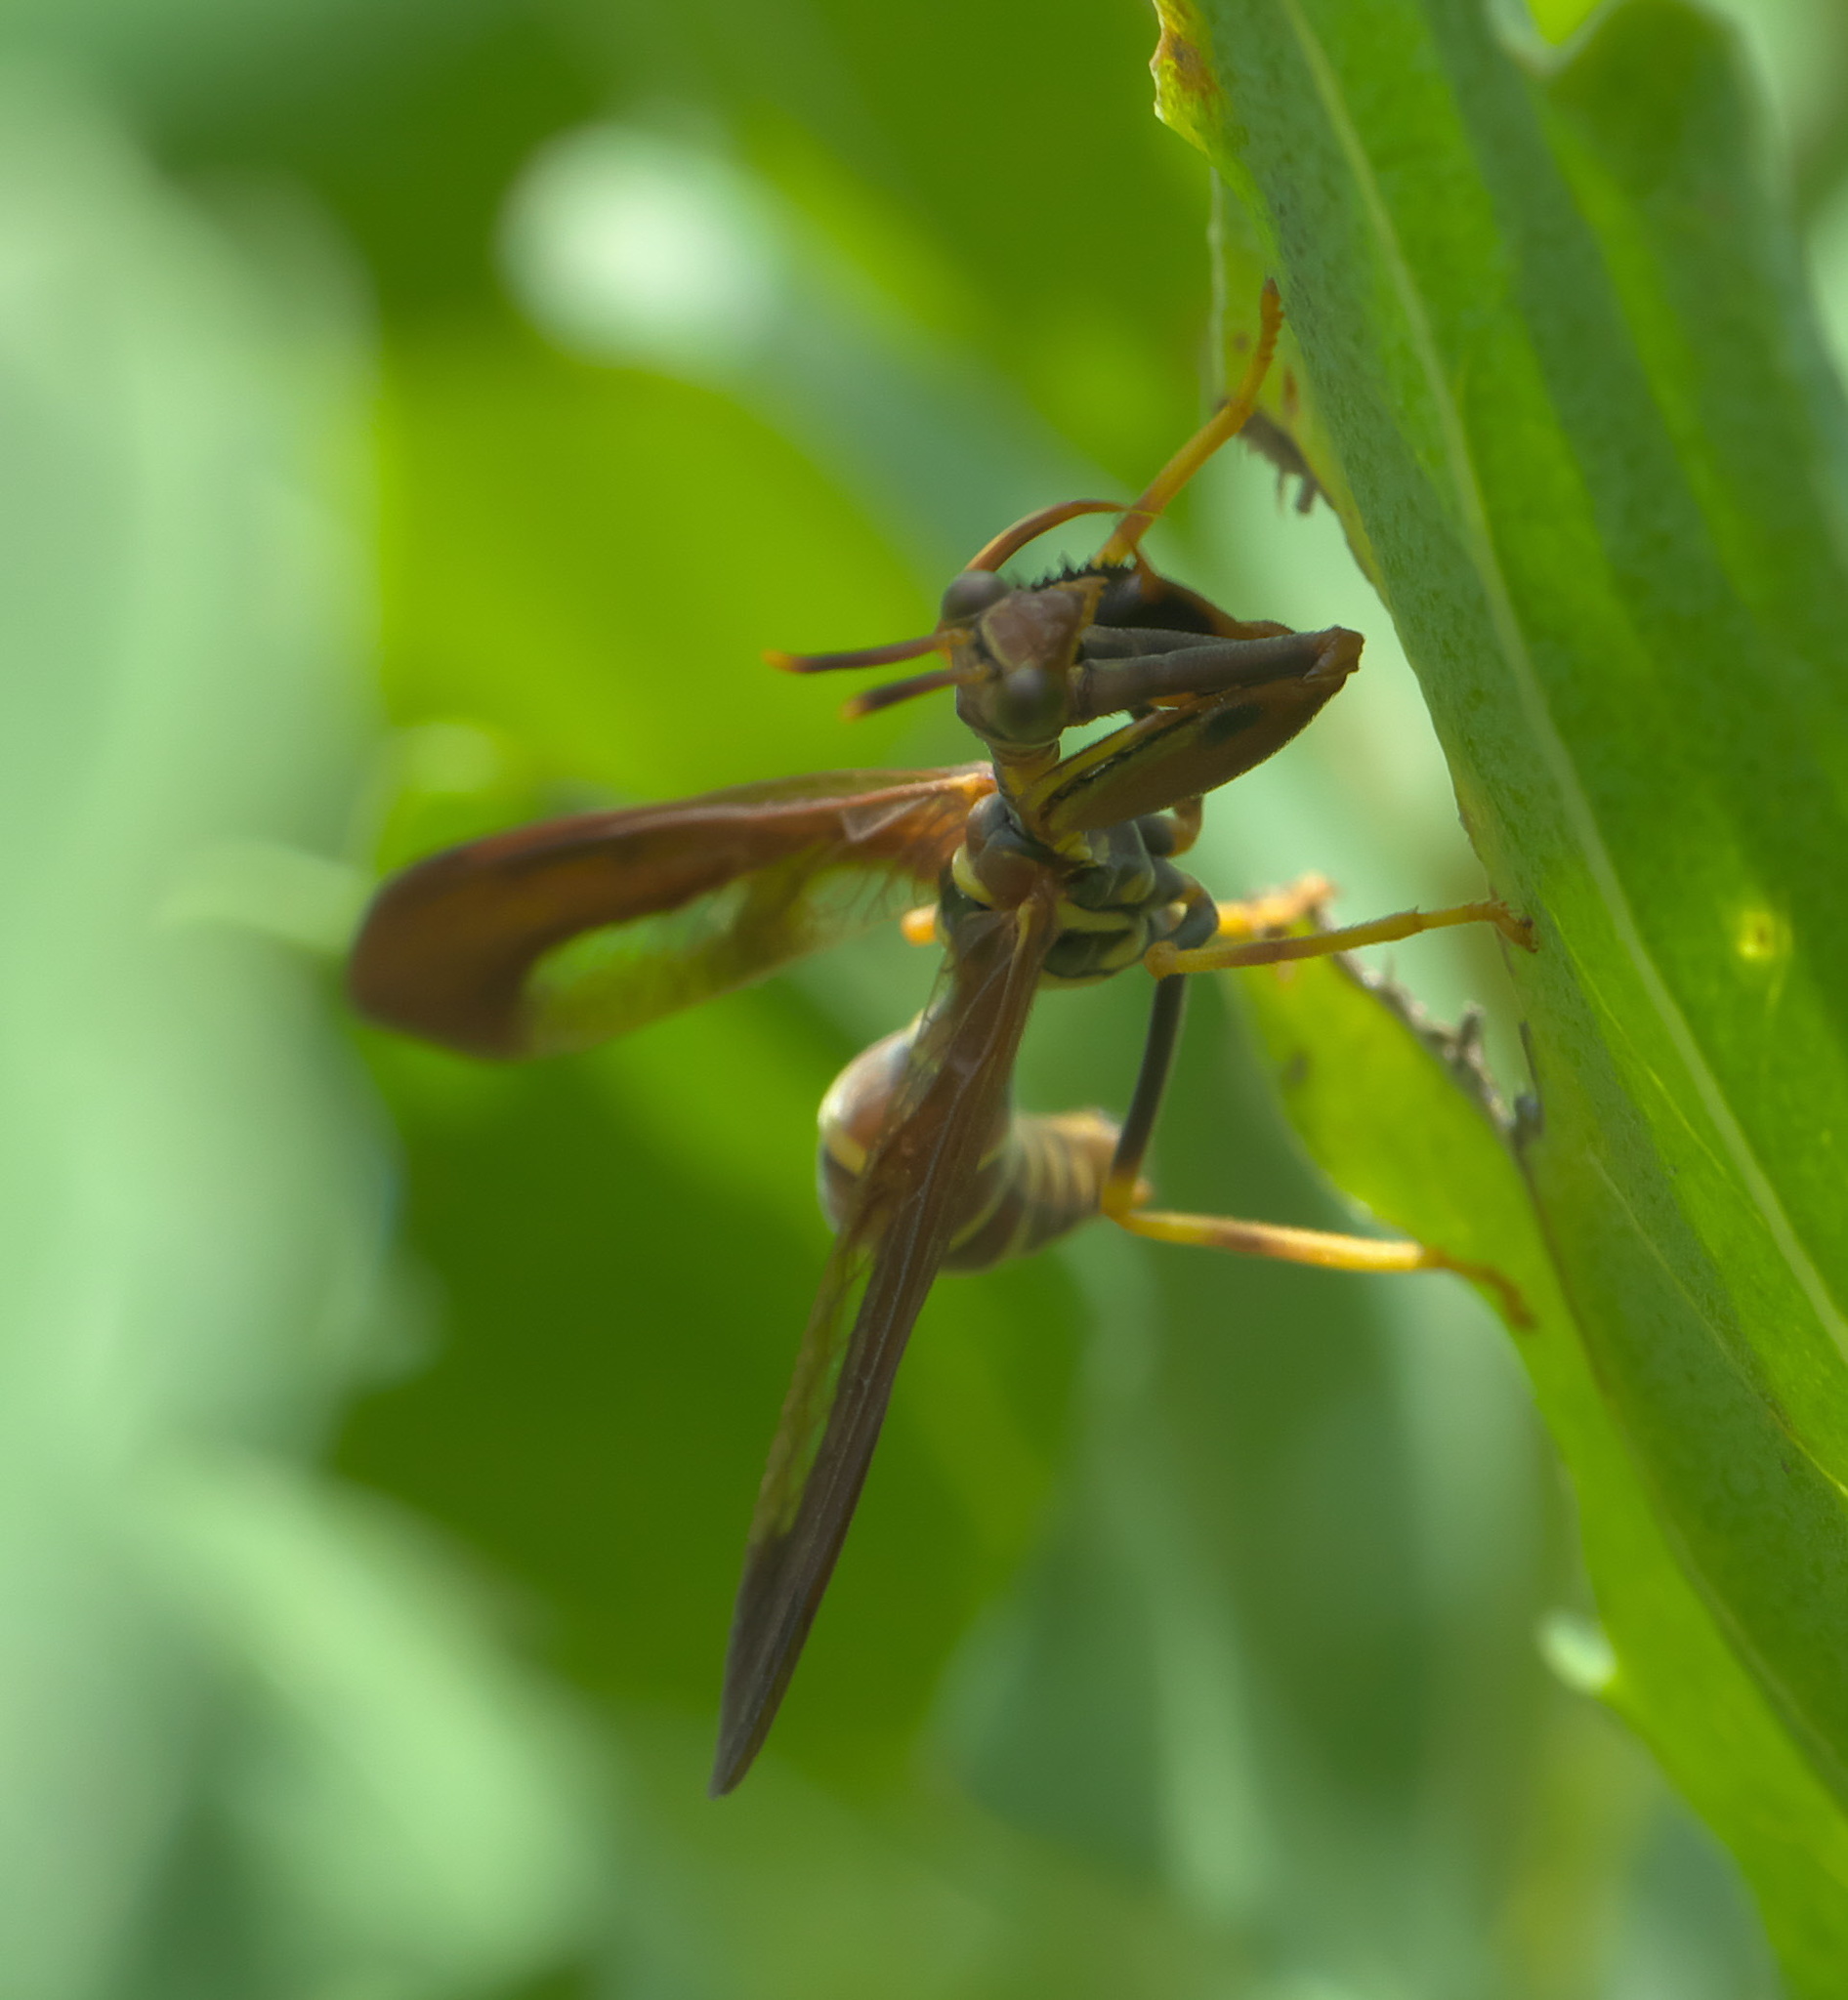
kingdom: Animalia
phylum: Arthropoda
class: Insecta
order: Neuroptera
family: Mantispidae
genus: Climaciella
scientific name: Climaciella brunnea
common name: Brown wasp mantidfly
